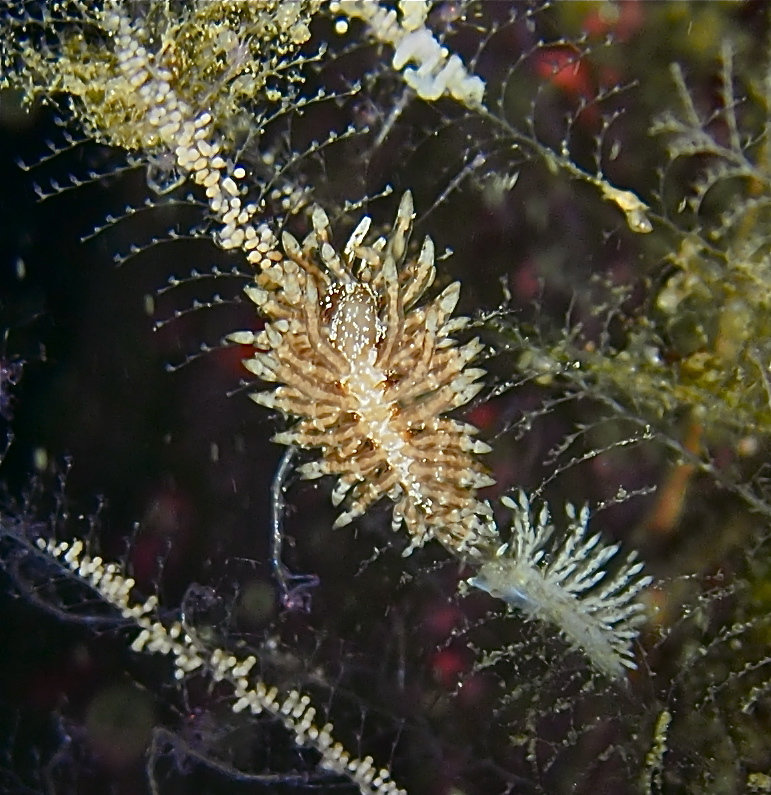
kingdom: Animalia
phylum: Mollusca
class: Gastropoda
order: Nudibranchia
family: Eubranchidae
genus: Eubranchus
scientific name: Eubranchus vittatus
